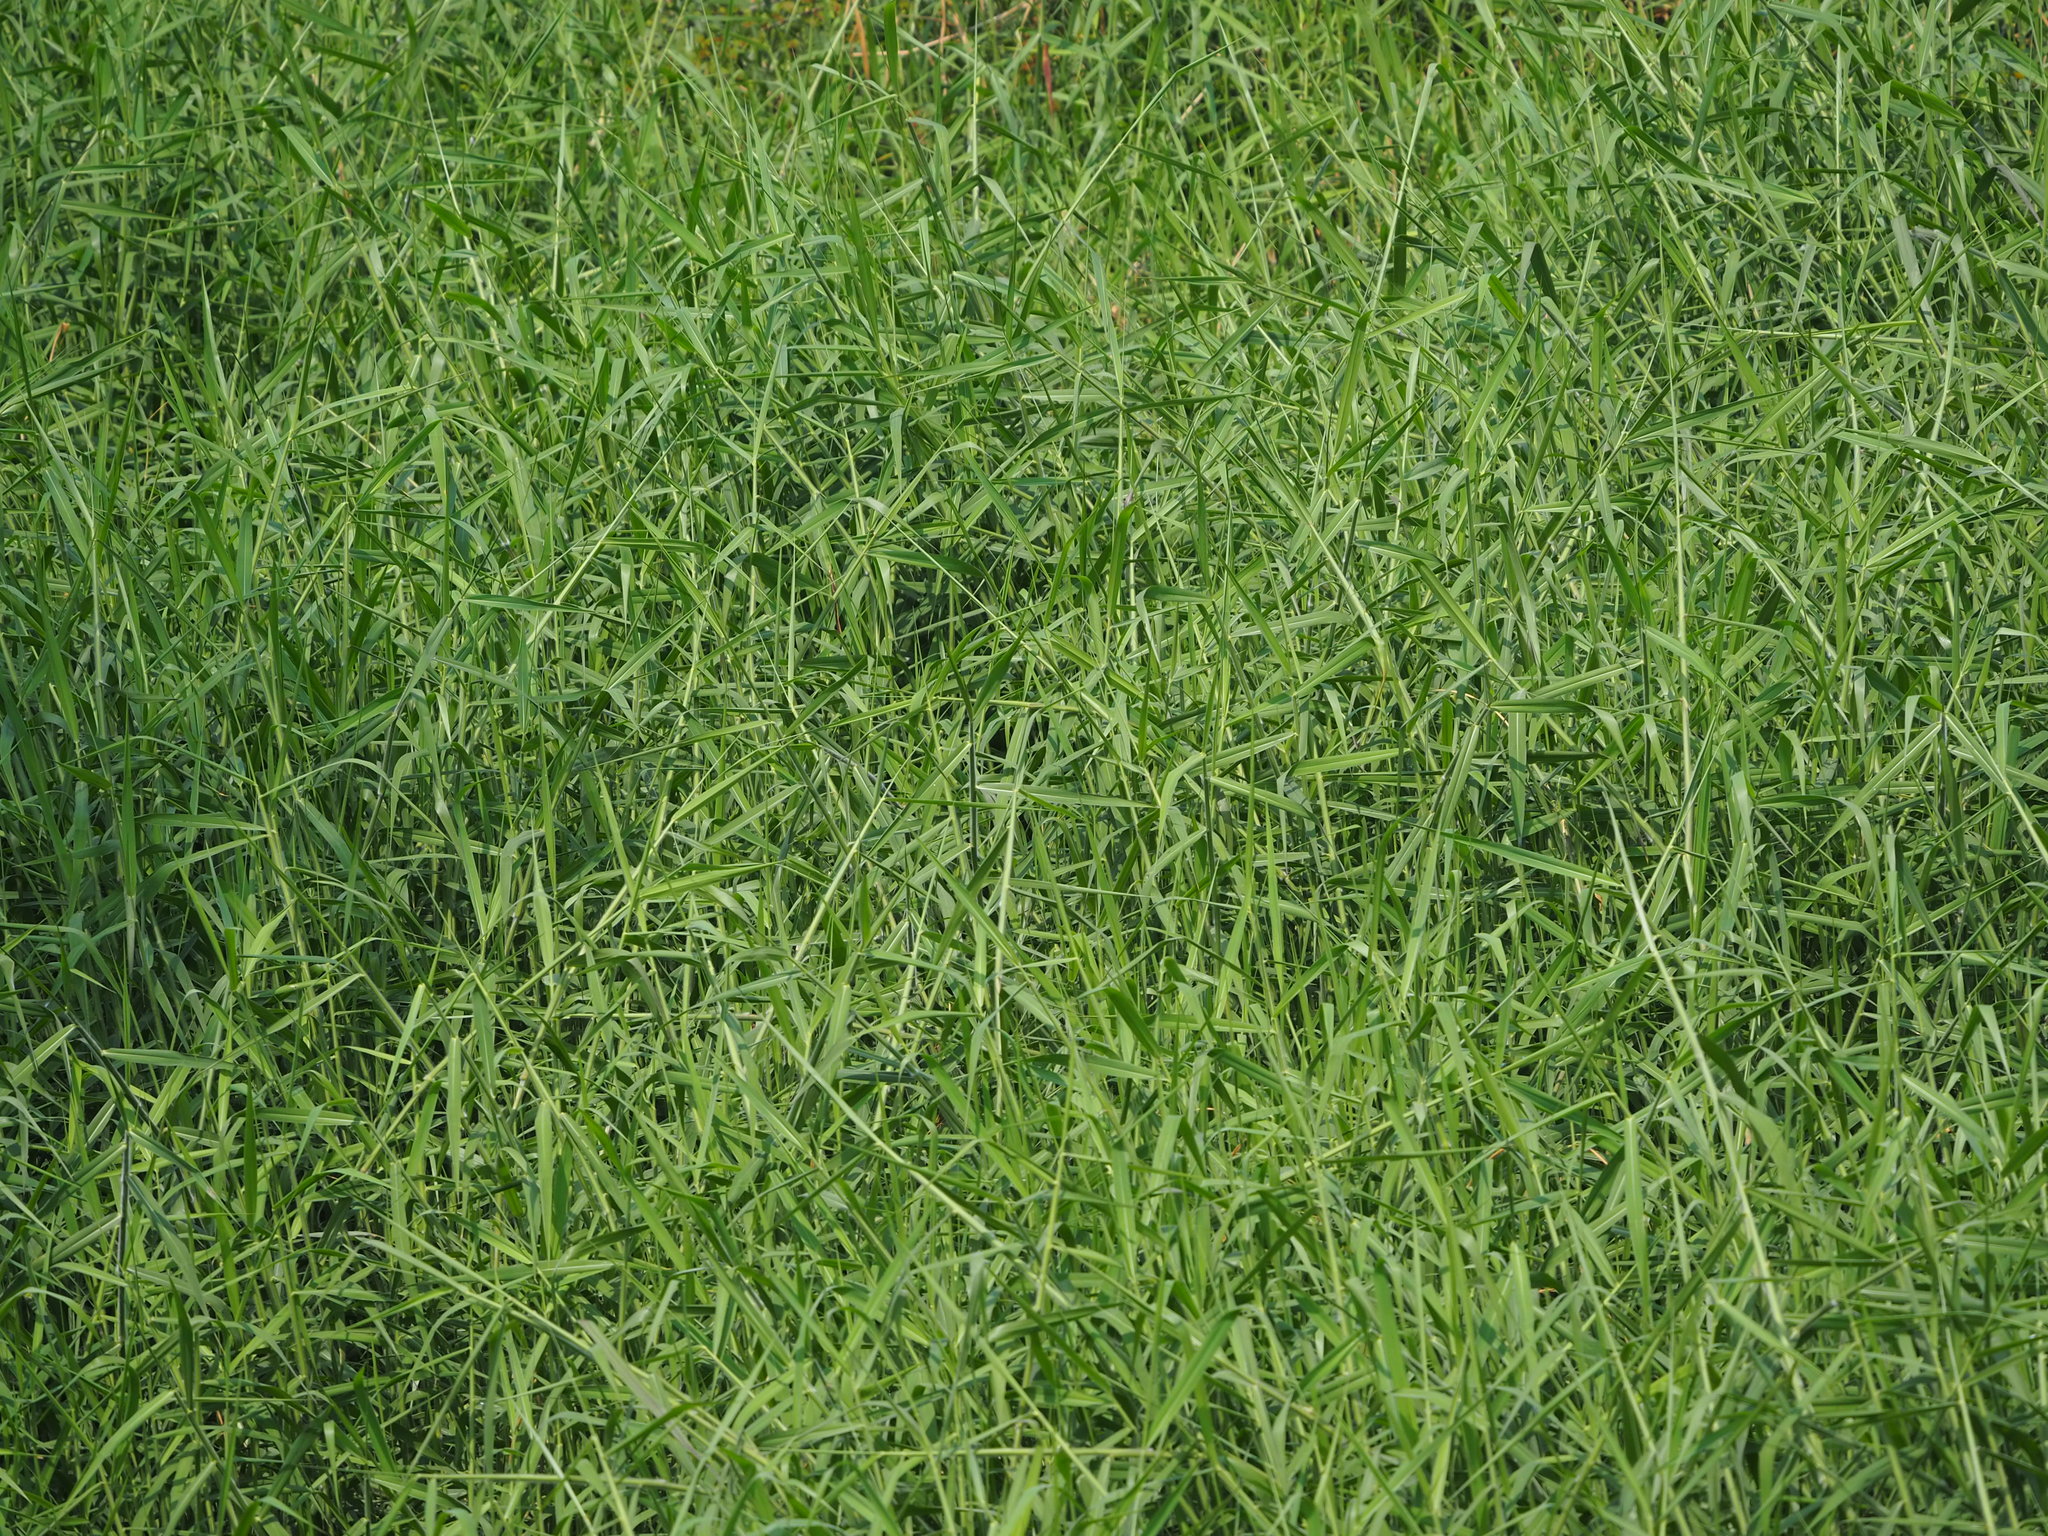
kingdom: Plantae
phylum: Tracheophyta
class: Liliopsida
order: Poales
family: Poaceae
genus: Urochloa
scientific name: Urochloa mutica
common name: Para grass
